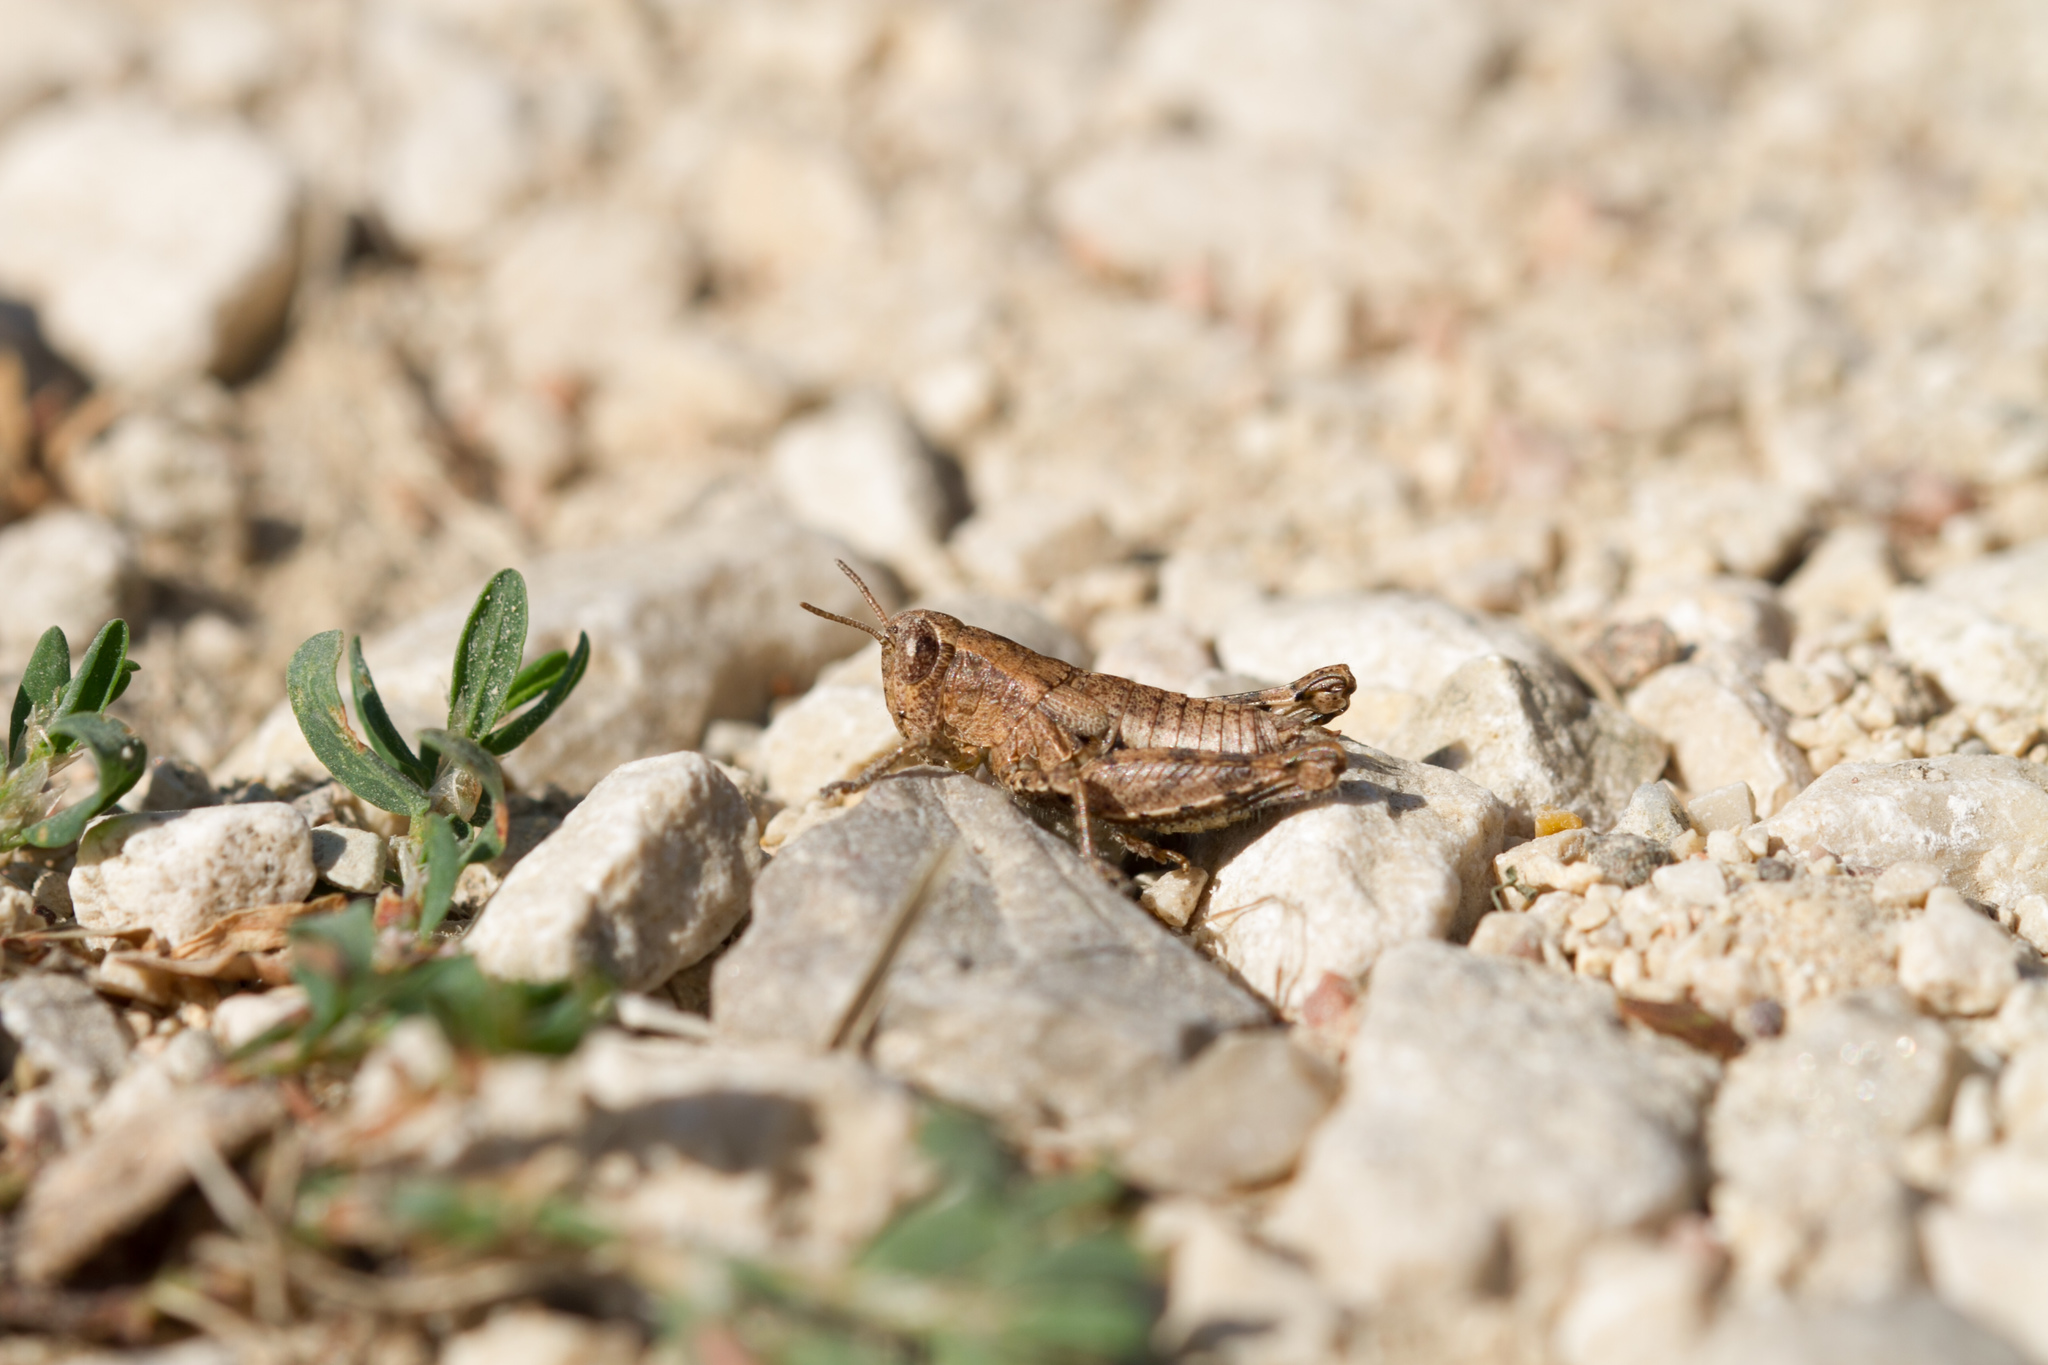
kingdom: Animalia
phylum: Arthropoda
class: Insecta
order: Orthoptera
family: Acrididae
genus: Pezotettix
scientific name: Pezotettix giornae
